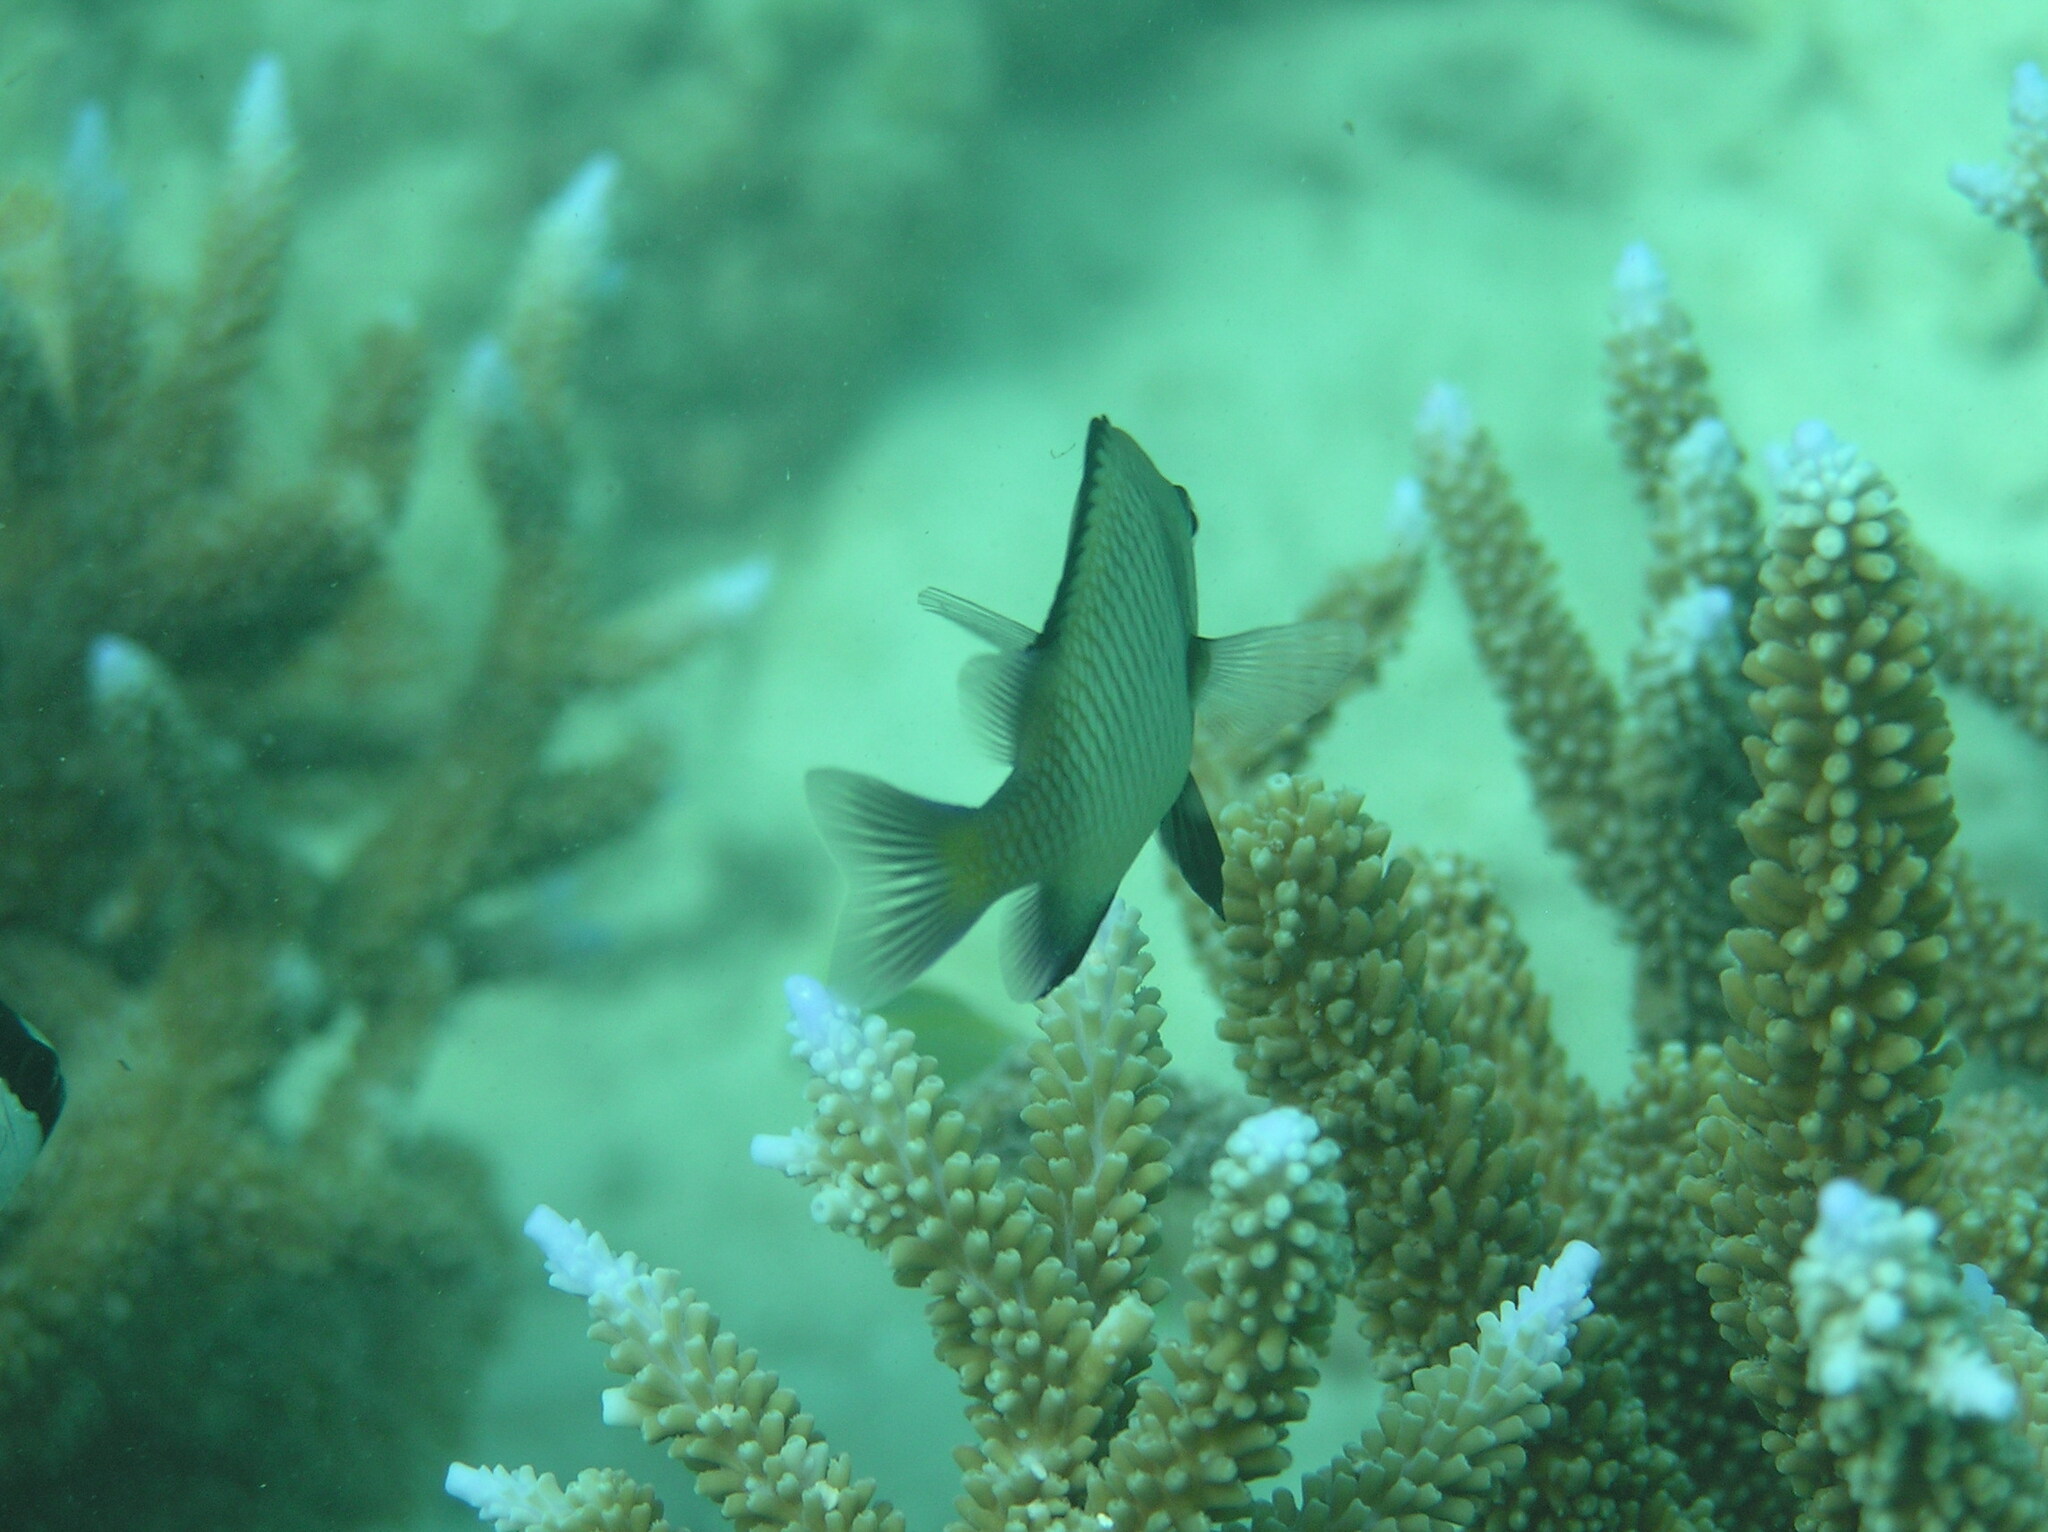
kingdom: Animalia
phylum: Chordata
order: Perciformes
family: Pomacentridae
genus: Dascyllus
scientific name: Dascyllus reticulatus
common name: Reticulated dascyllus
